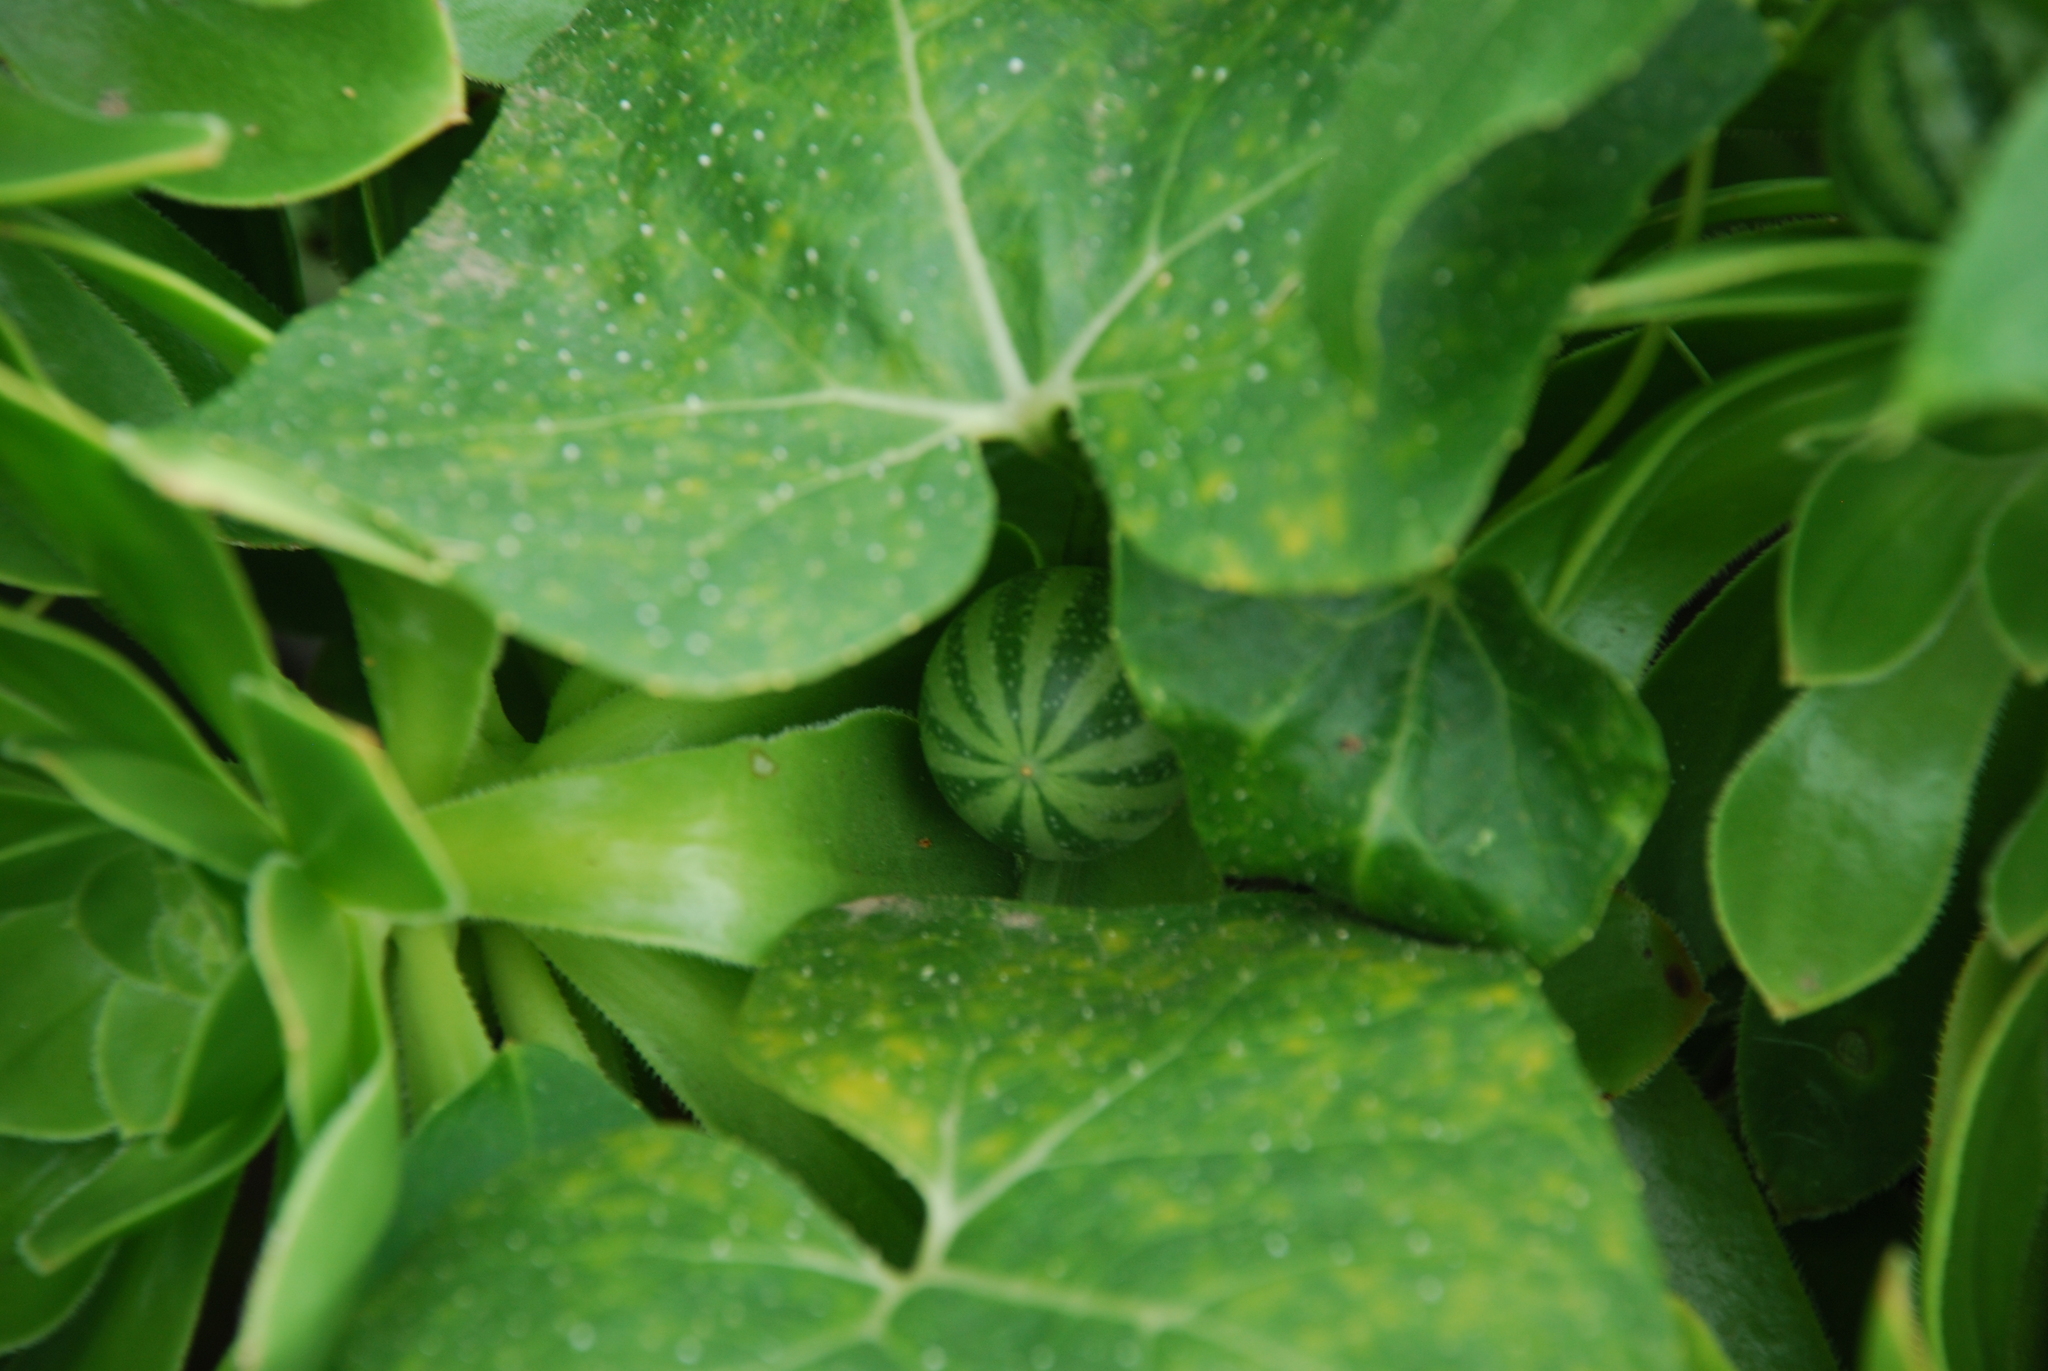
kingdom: Plantae
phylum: Tracheophyta
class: Magnoliopsida
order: Cucurbitales
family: Cucurbitaceae
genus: Bryonia
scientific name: Bryonia verrucosa
